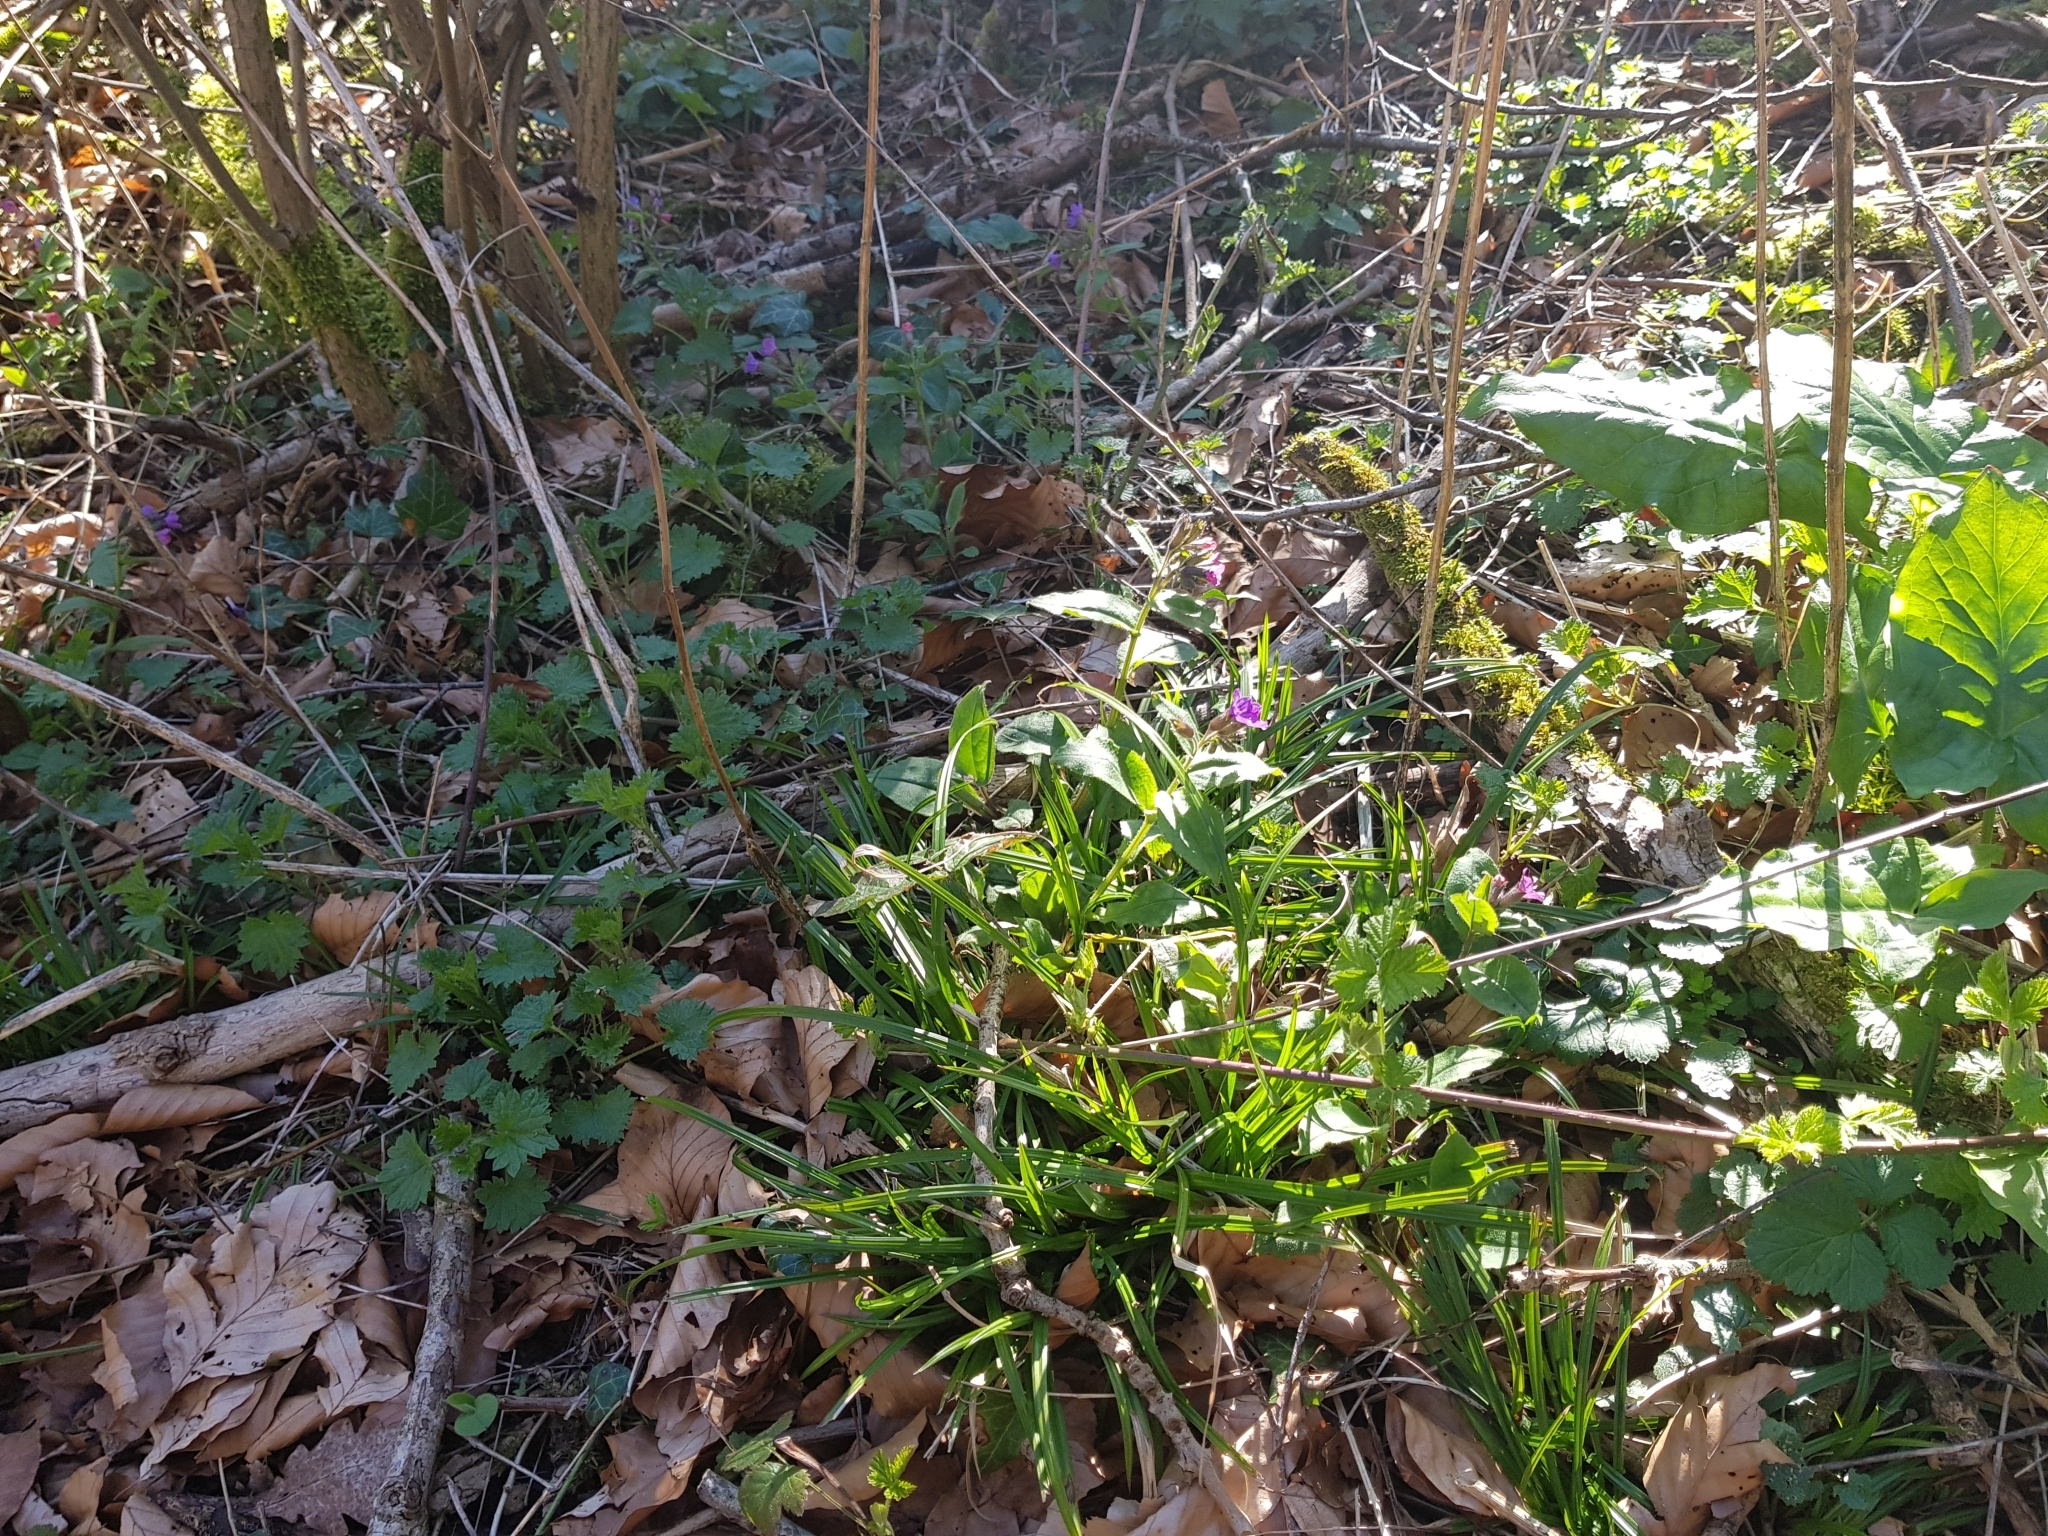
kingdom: Plantae
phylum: Tracheophyta
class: Magnoliopsida
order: Boraginales
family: Boraginaceae
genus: Pulmonaria
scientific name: Pulmonaria obscura
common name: Suffolk lungwort
